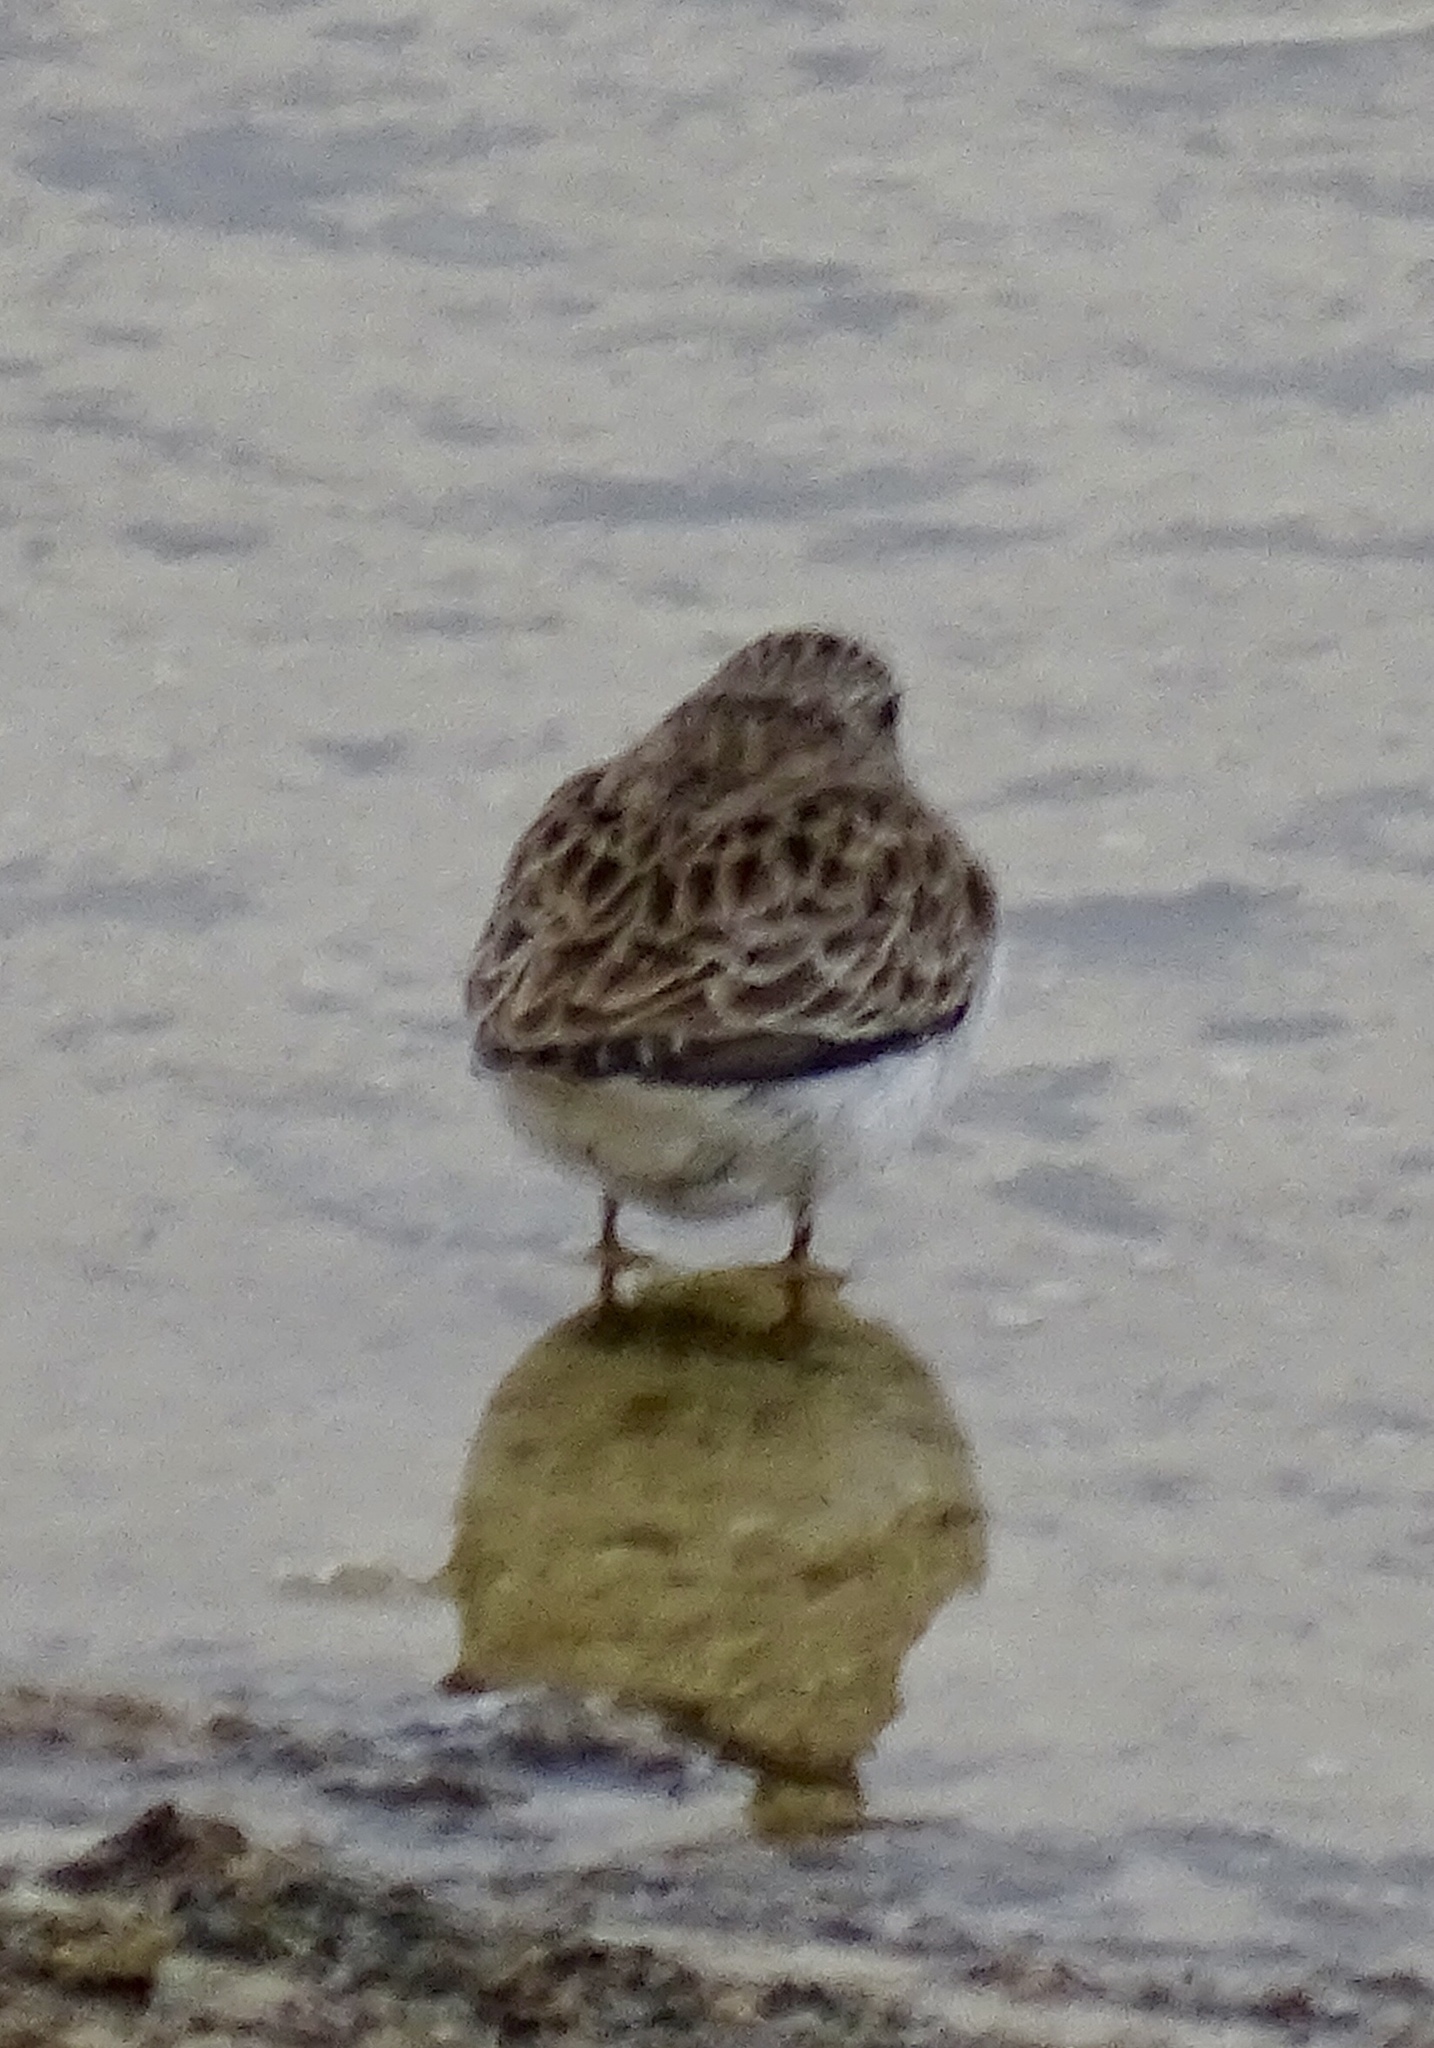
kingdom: Animalia
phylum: Chordata
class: Aves
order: Charadriiformes
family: Scolopacidae
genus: Calidris
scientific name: Calidris minutilla
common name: Least sandpiper
